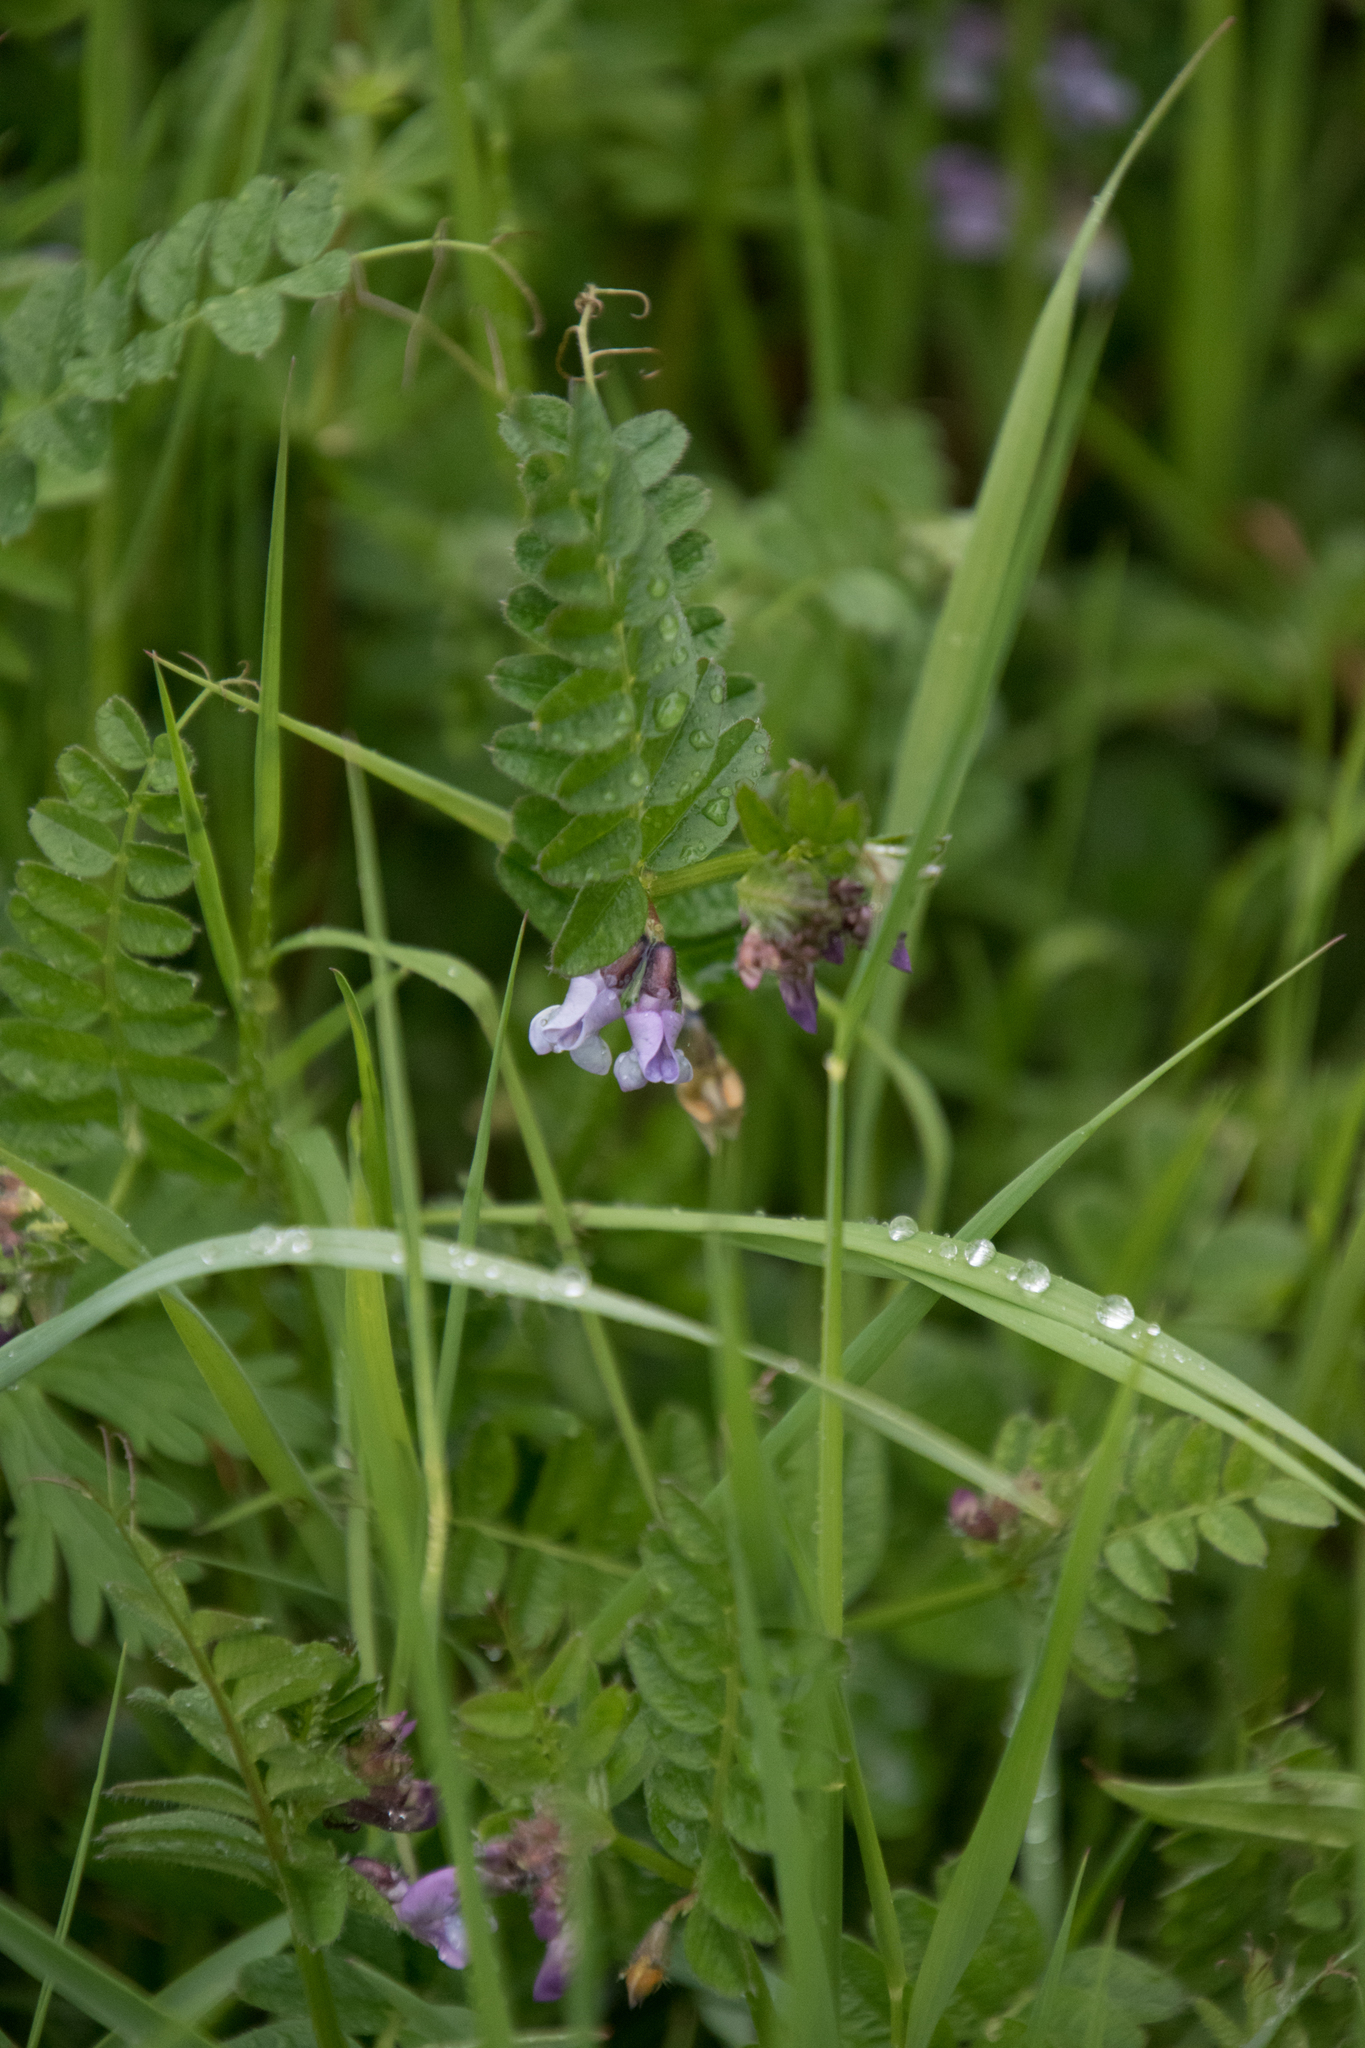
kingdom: Plantae
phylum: Tracheophyta
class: Magnoliopsida
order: Fabales
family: Fabaceae
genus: Vicia
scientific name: Vicia sepium
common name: Bush vetch
